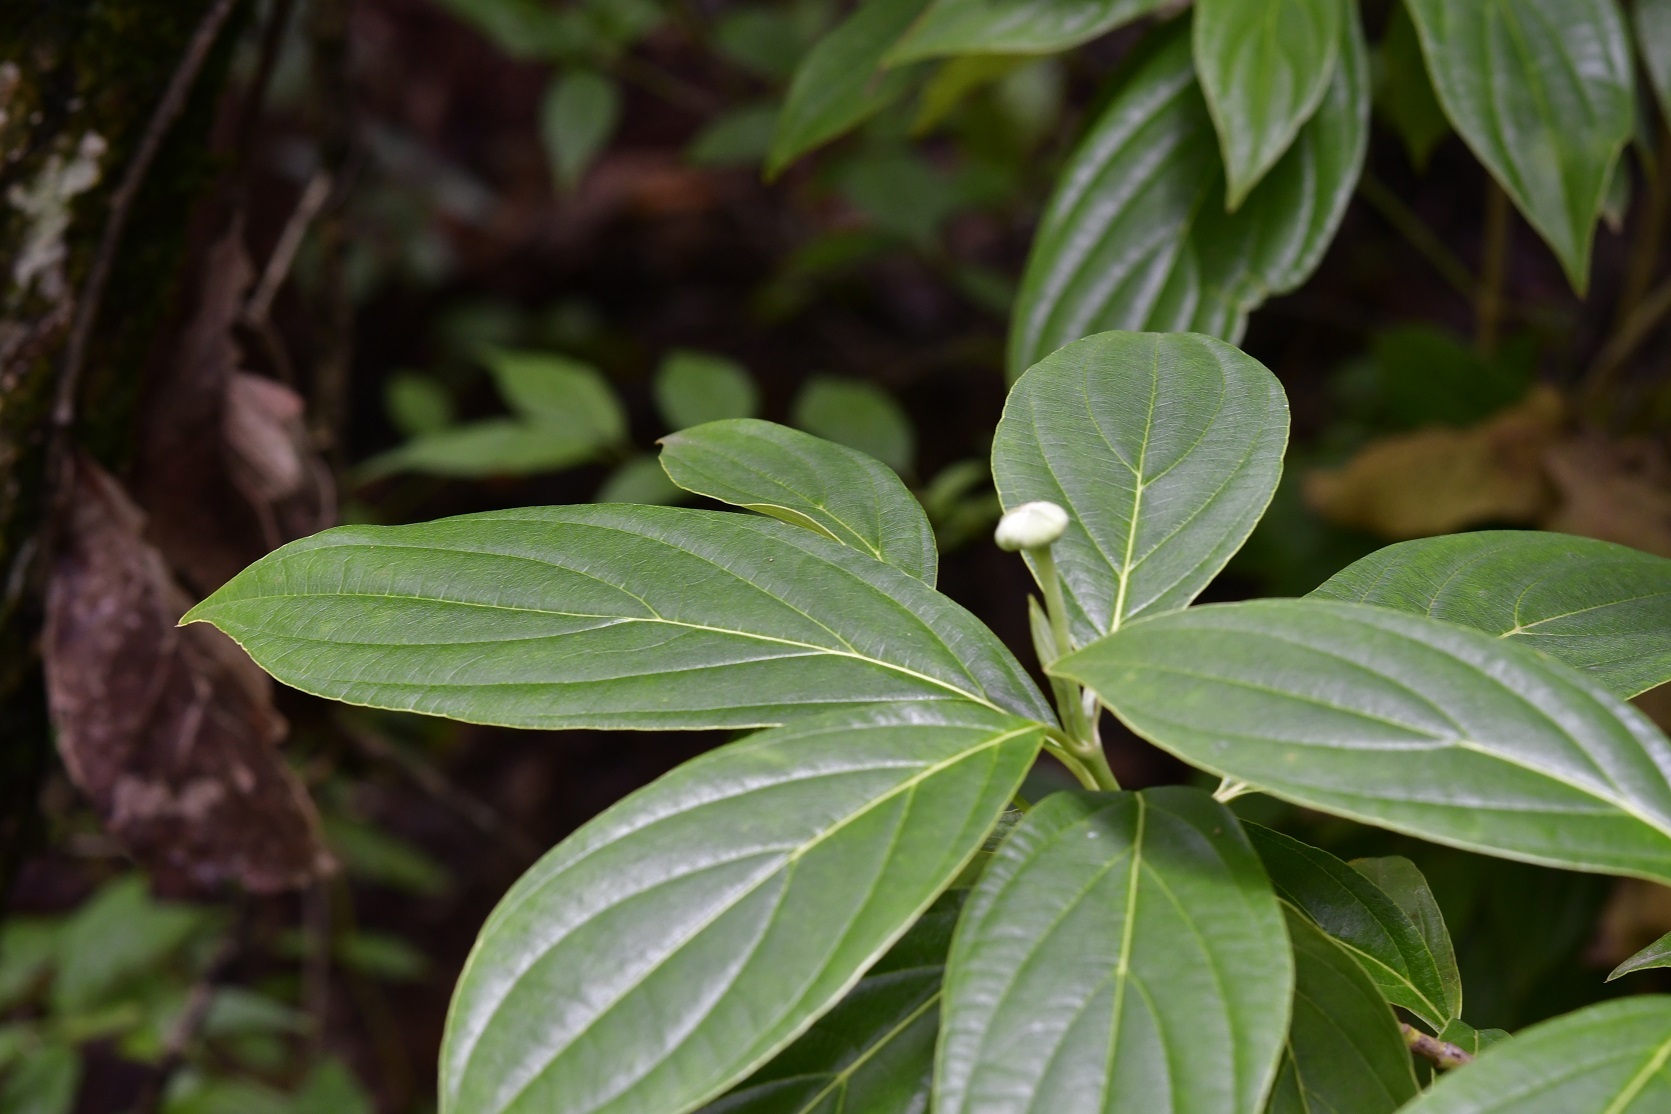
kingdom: Plantae
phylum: Tracheophyta
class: Magnoliopsida
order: Cornales
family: Cornaceae
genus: Cornus
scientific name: Cornus disciflora
